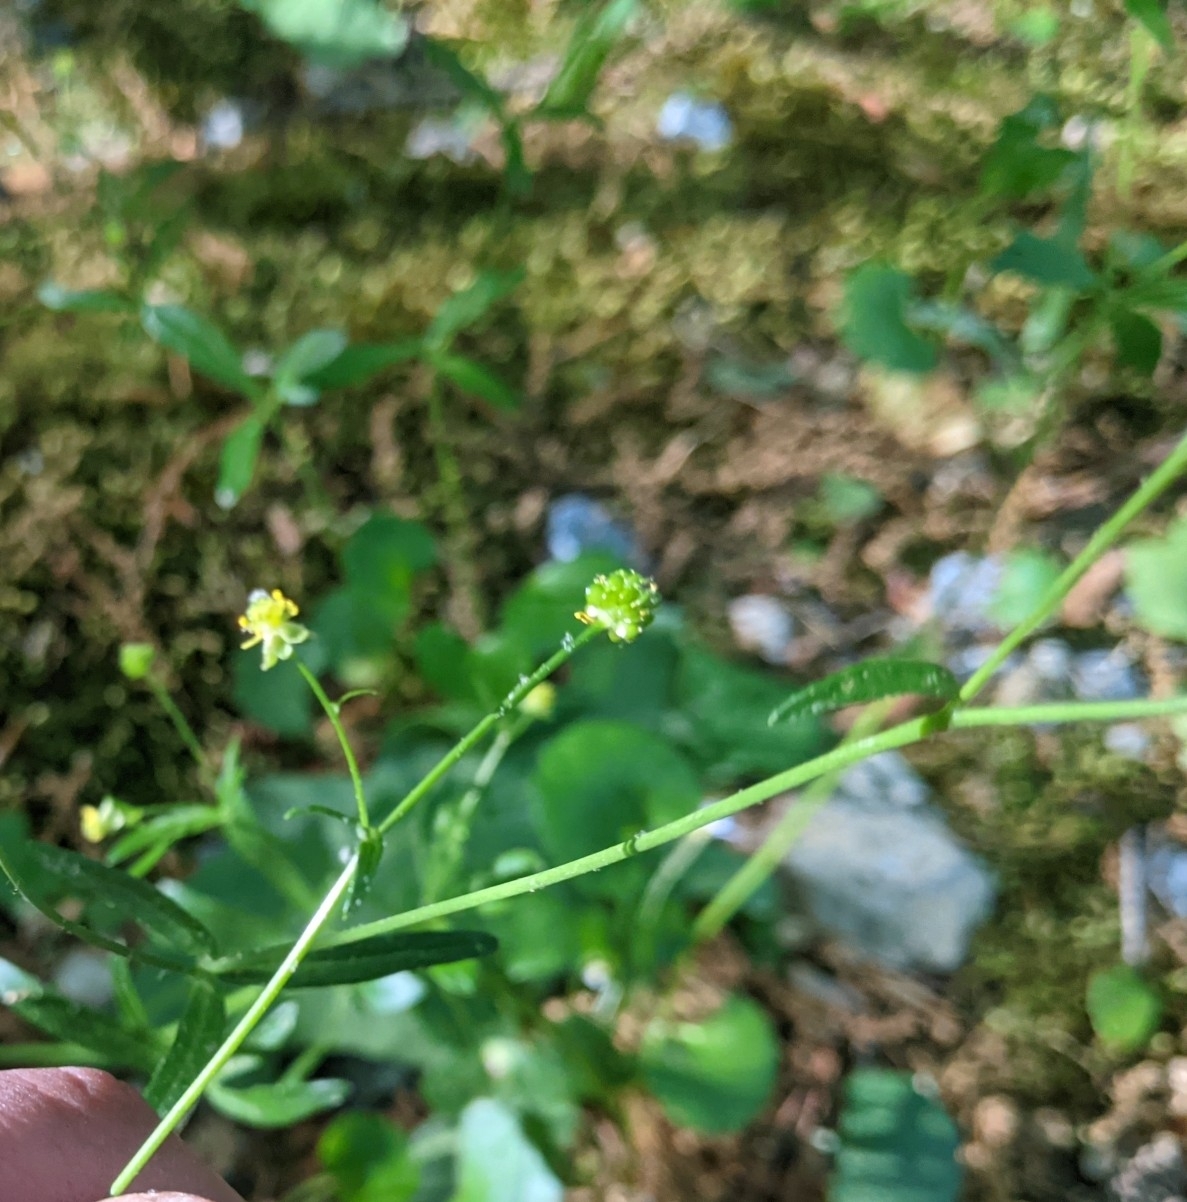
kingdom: Plantae
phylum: Tracheophyta
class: Magnoliopsida
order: Ranunculales
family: Ranunculaceae
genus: Ranunculus
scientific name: Ranunculus abortivus
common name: Early wood buttercup
